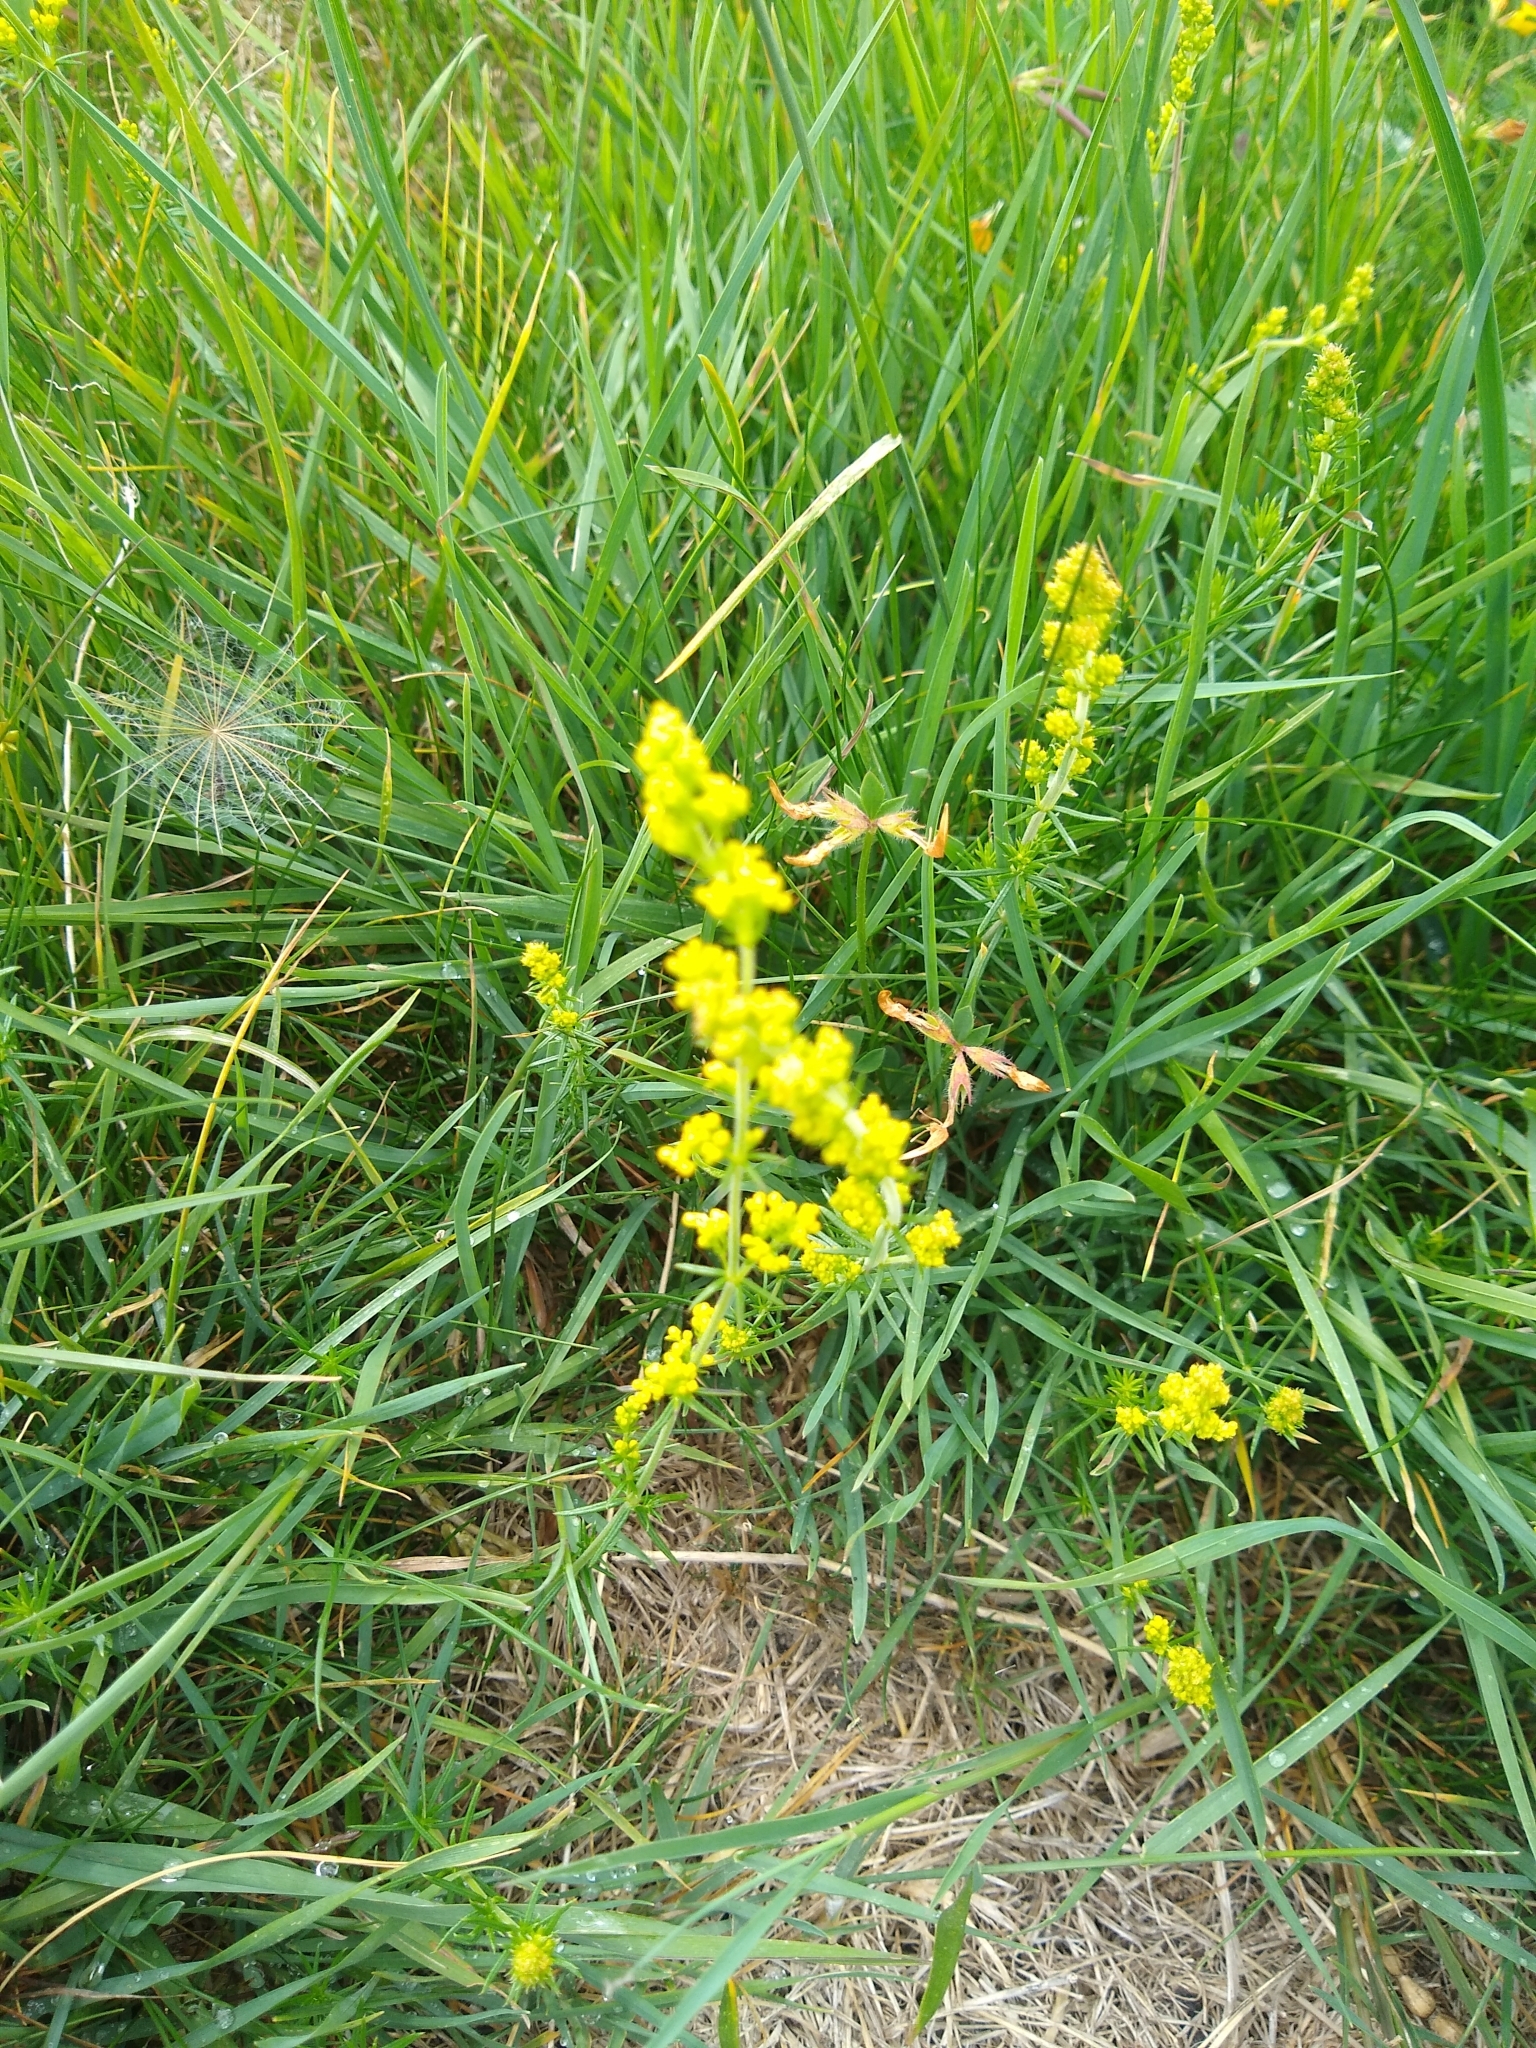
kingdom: Plantae
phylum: Tracheophyta
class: Magnoliopsida
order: Gentianales
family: Rubiaceae
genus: Galium
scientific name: Galium verum
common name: Lady's bedstraw
